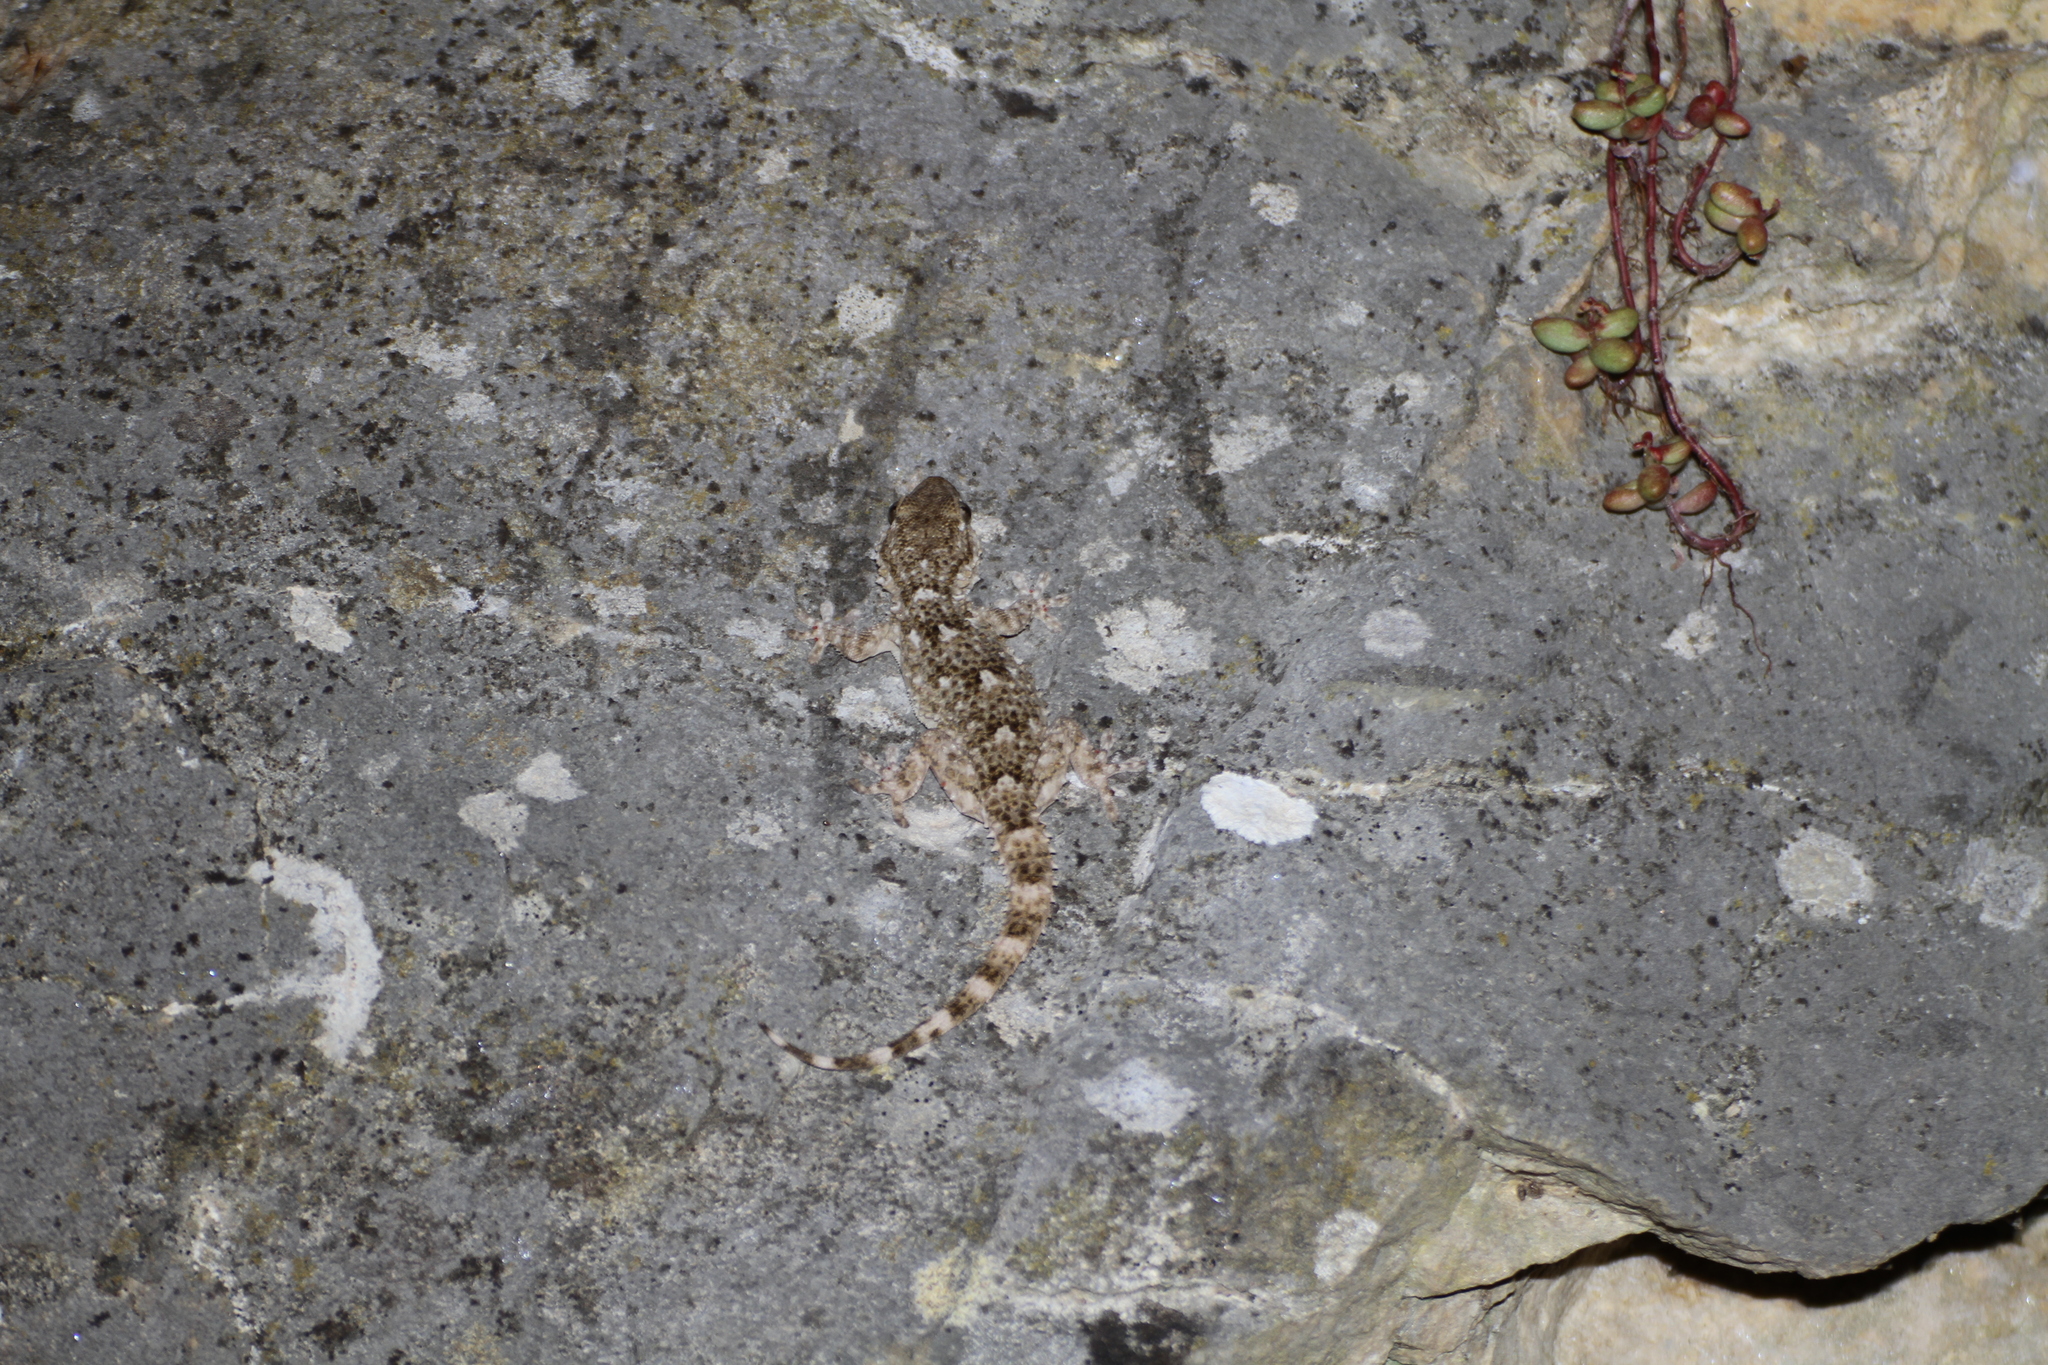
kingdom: Animalia
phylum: Chordata
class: Squamata
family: Phyllodactylidae
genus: Tarentola
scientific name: Tarentola mauritanica
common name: Moorish gecko
